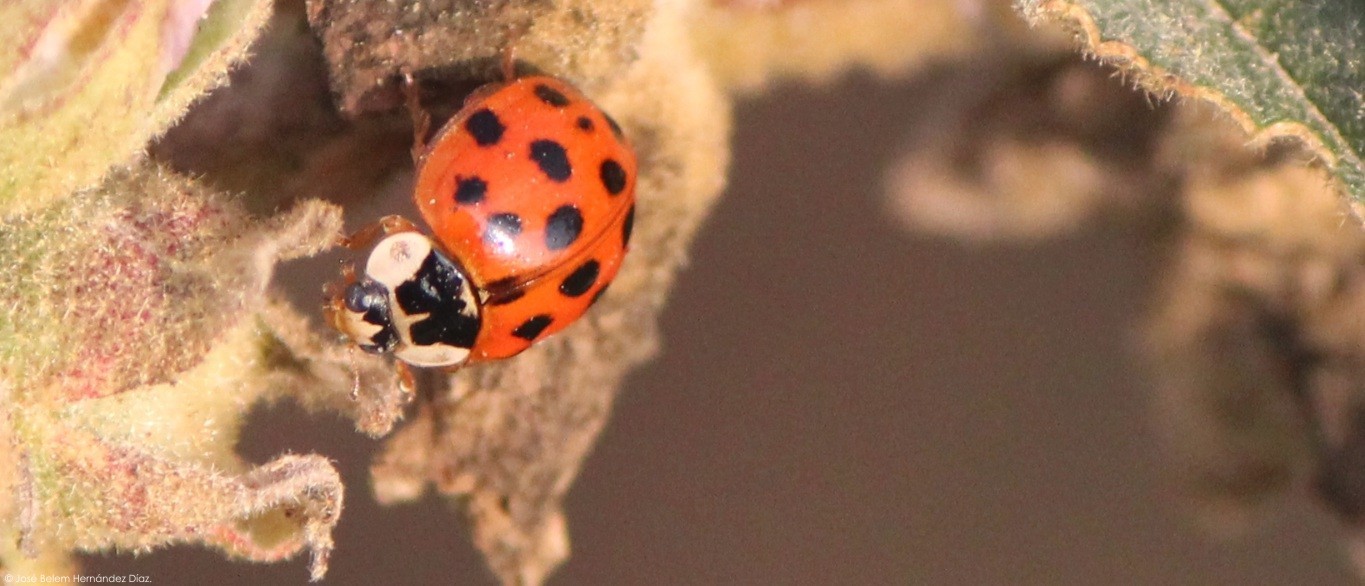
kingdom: Animalia
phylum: Arthropoda
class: Insecta
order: Coleoptera
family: Coccinellidae
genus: Harmonia
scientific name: Harmonia axyridis
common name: Harlequin ladybird
